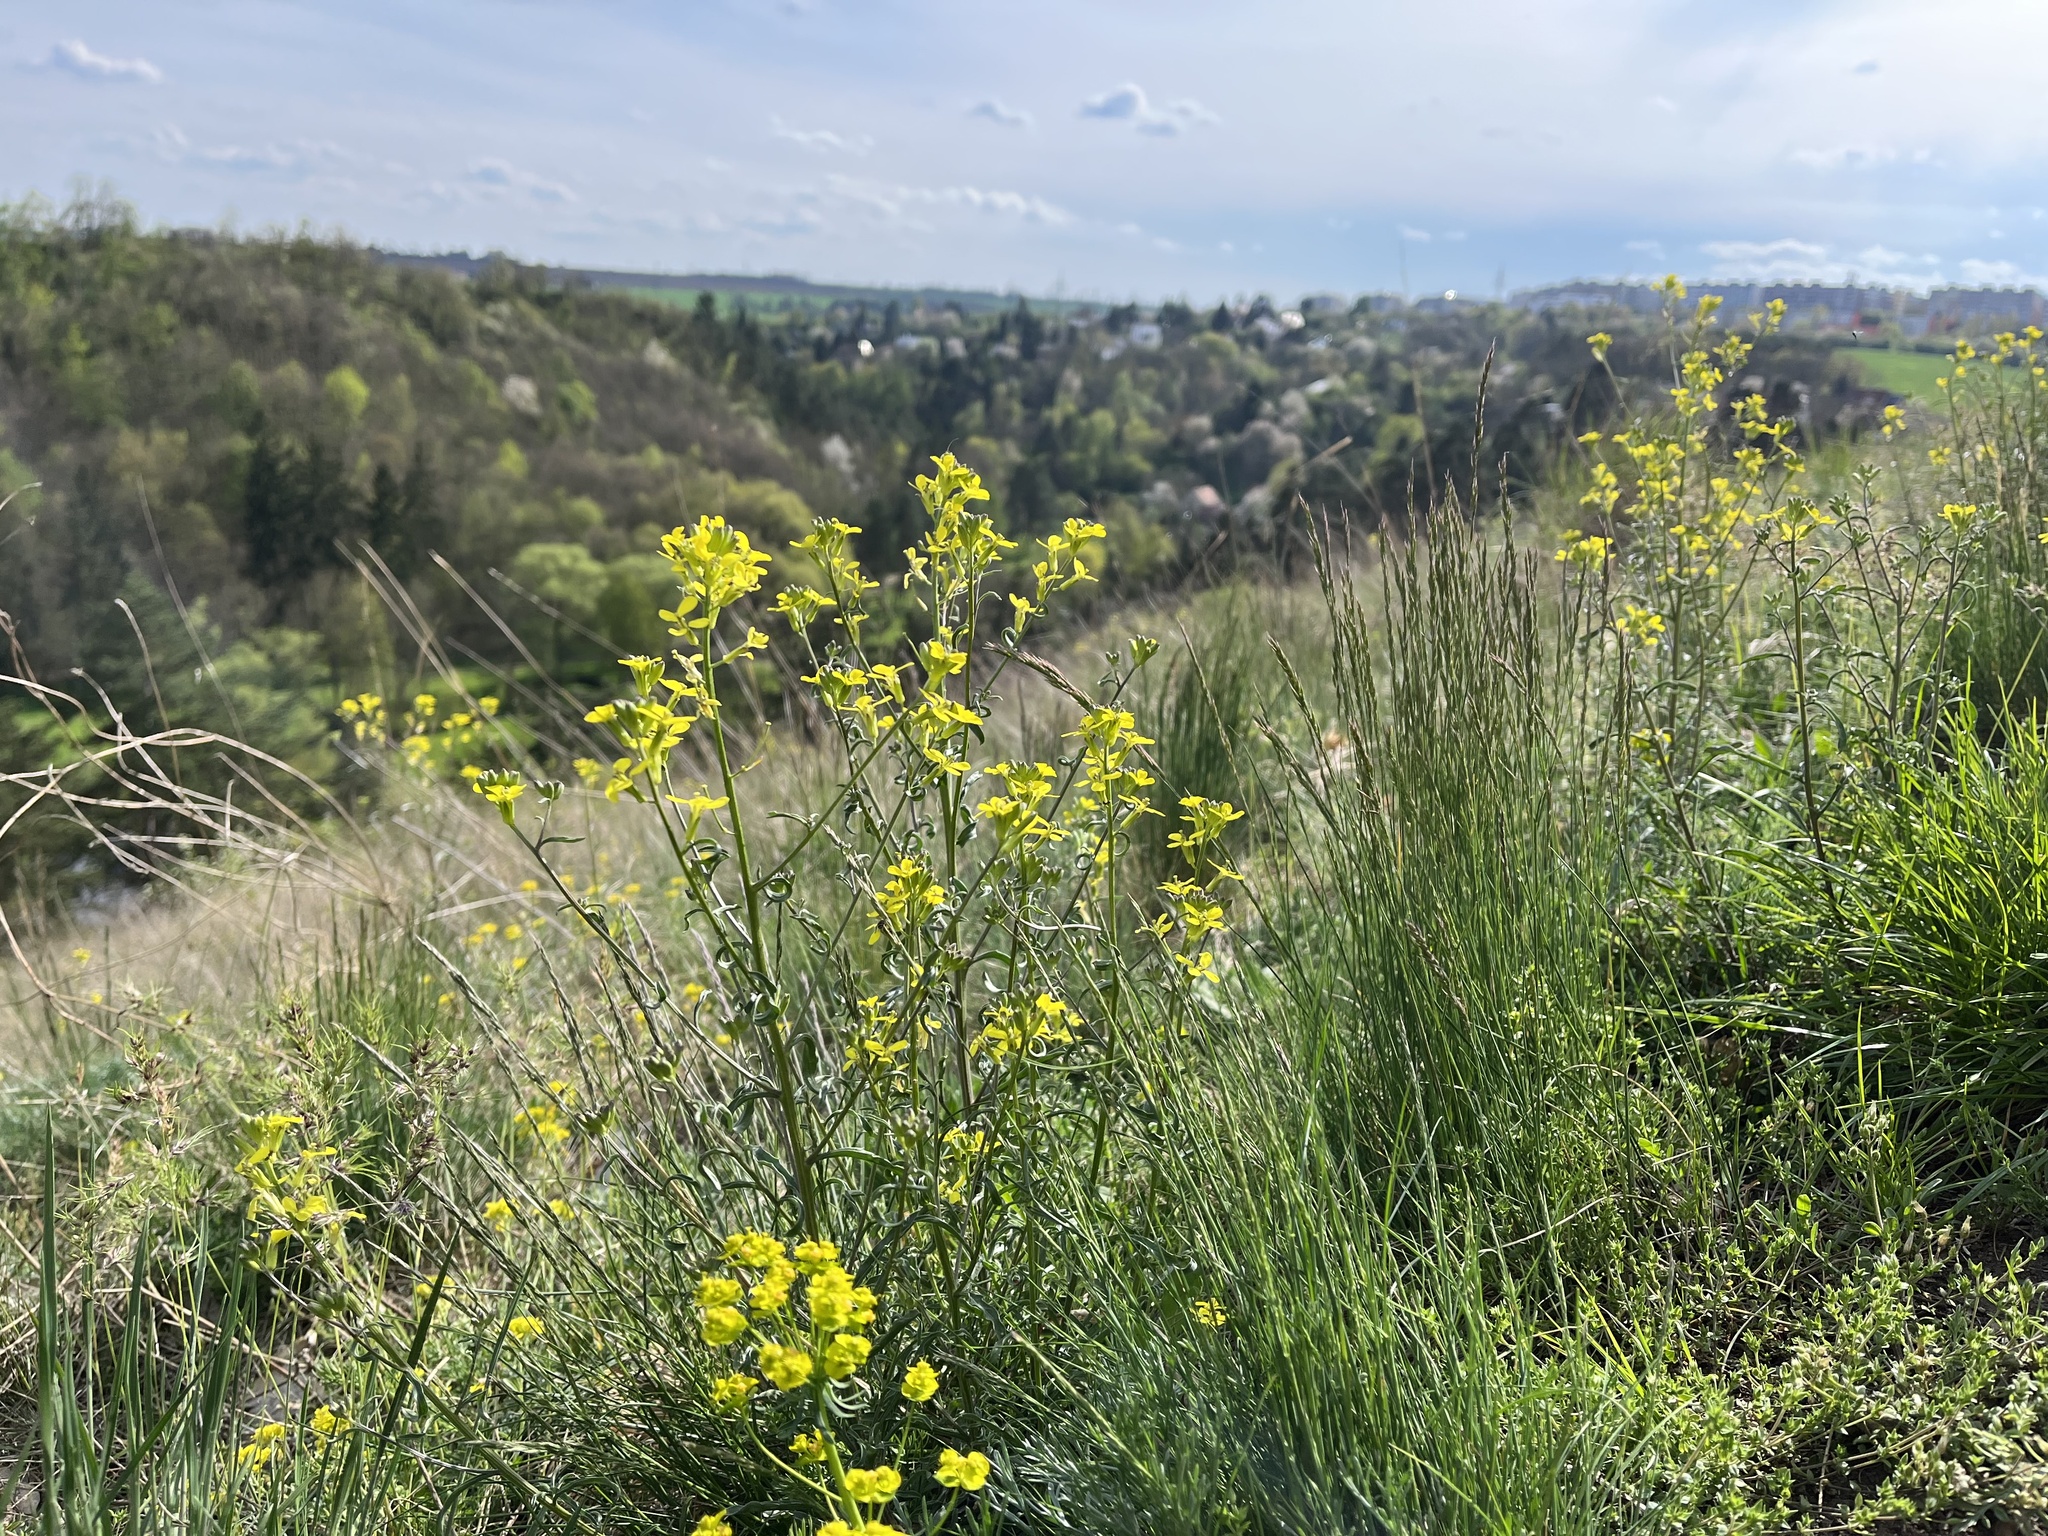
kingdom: Plantae
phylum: Tracheophyta
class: Magnoliopsida
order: Brassicales
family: Brassicaceae
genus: Erysimum
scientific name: Erysimum crepidifolium
